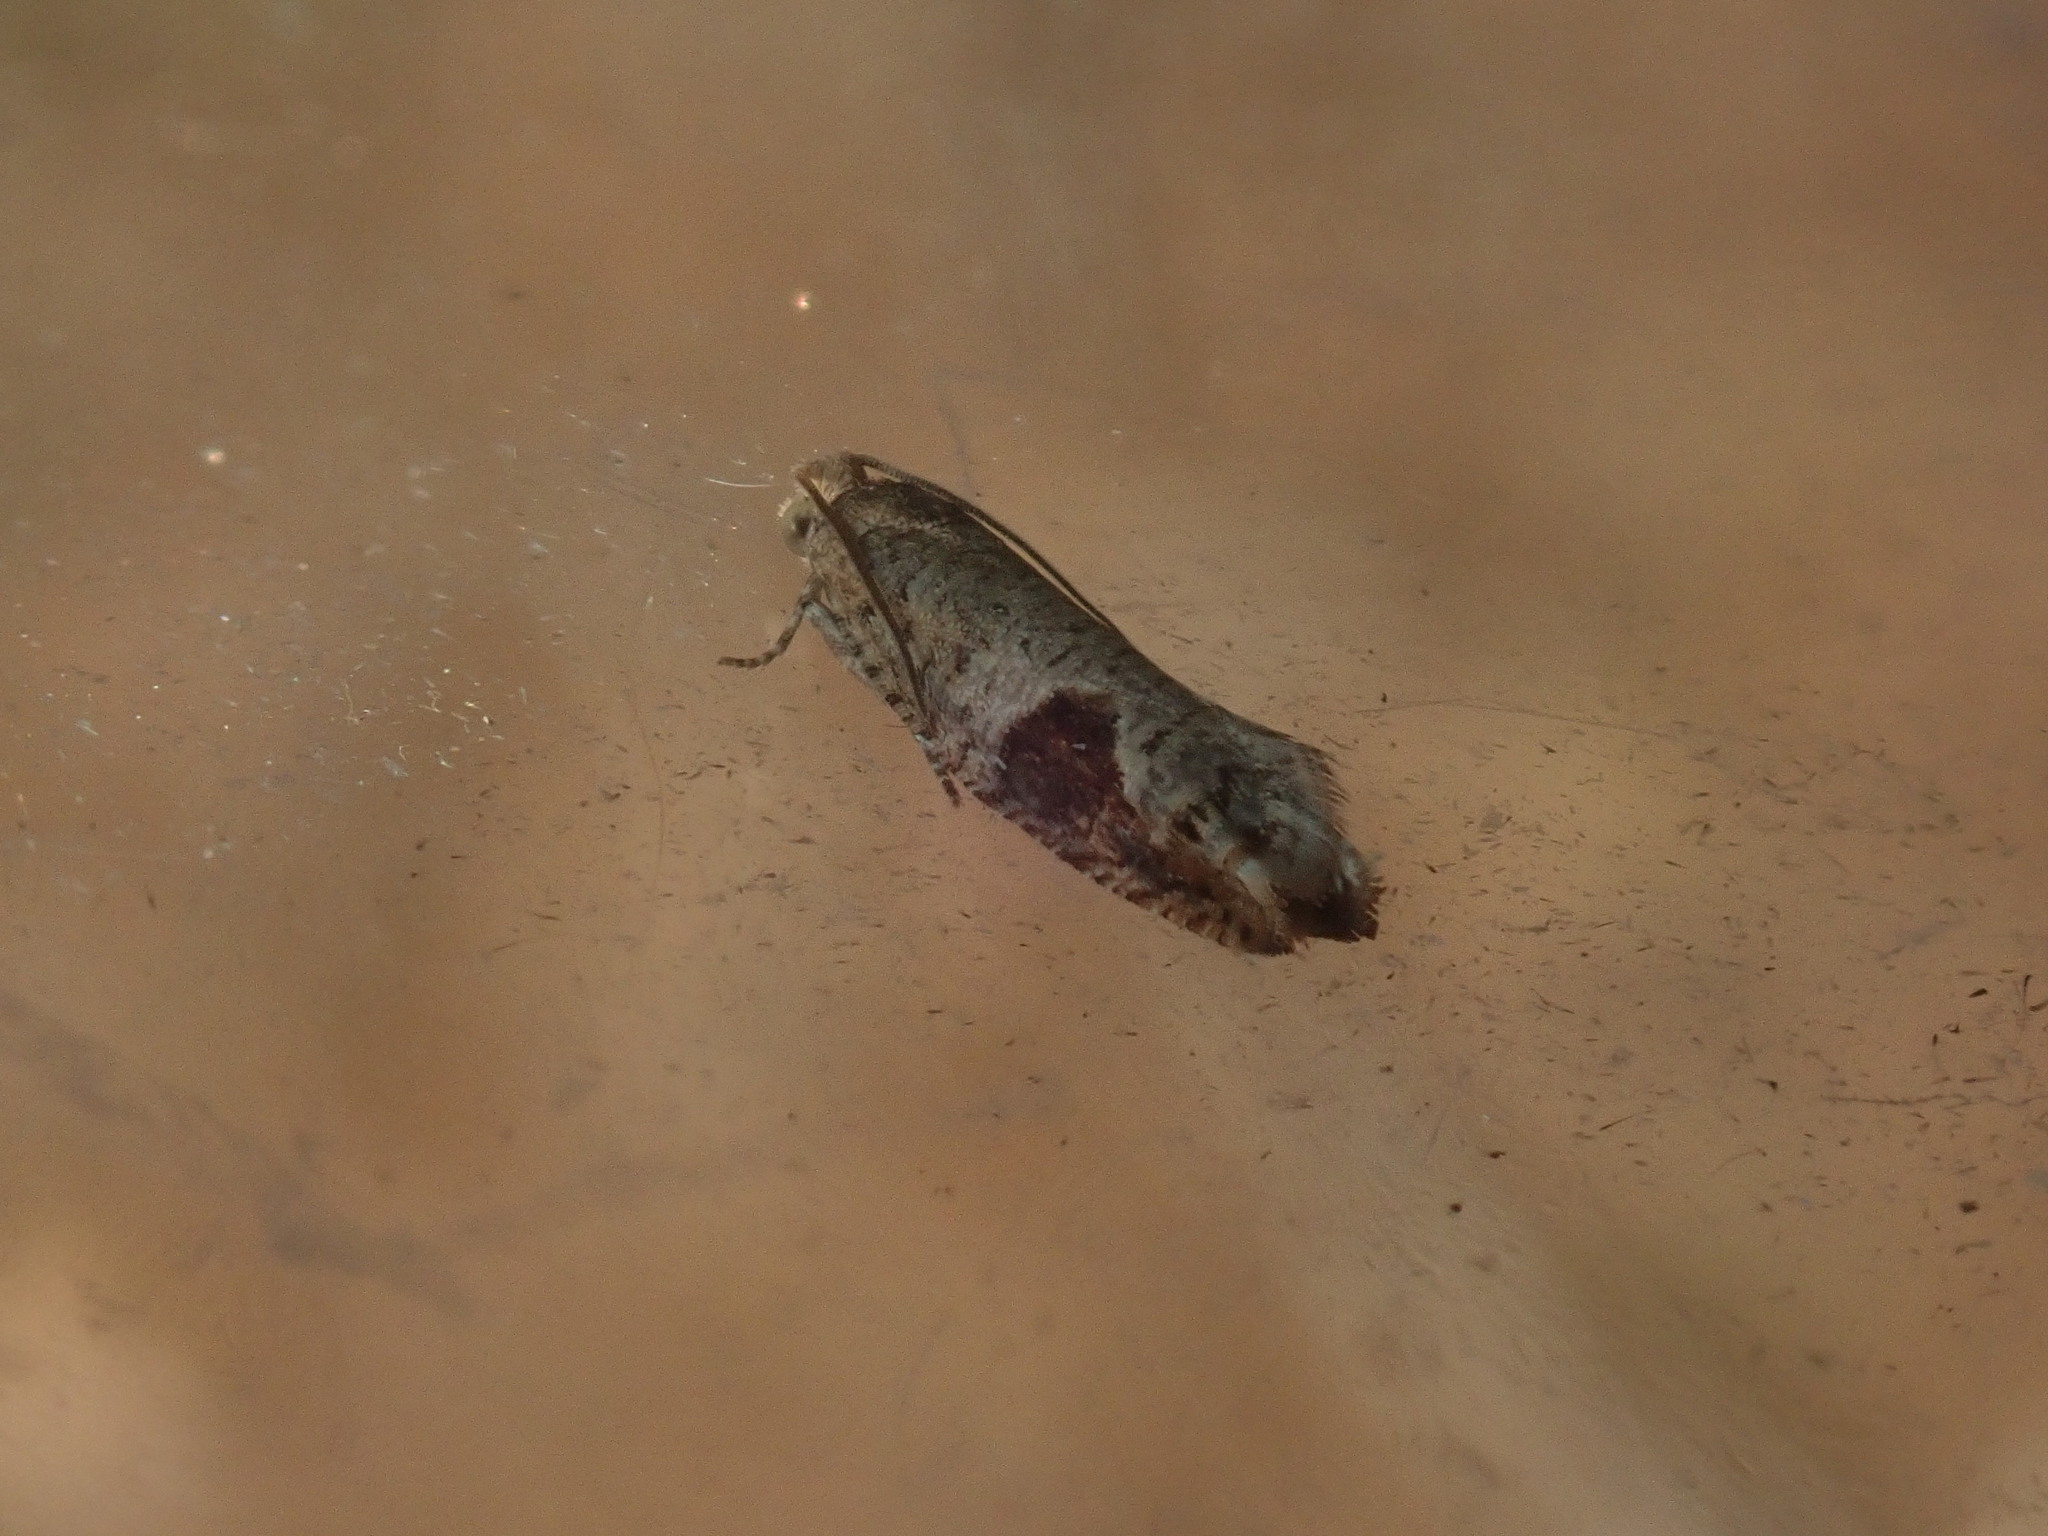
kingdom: Animalia
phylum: Arthropoda
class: Insecta
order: Lepidoptera
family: Tortricidae
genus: Pseudexentera
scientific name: Pseudexentera virginiana
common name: Virginia pseudexentera moth
